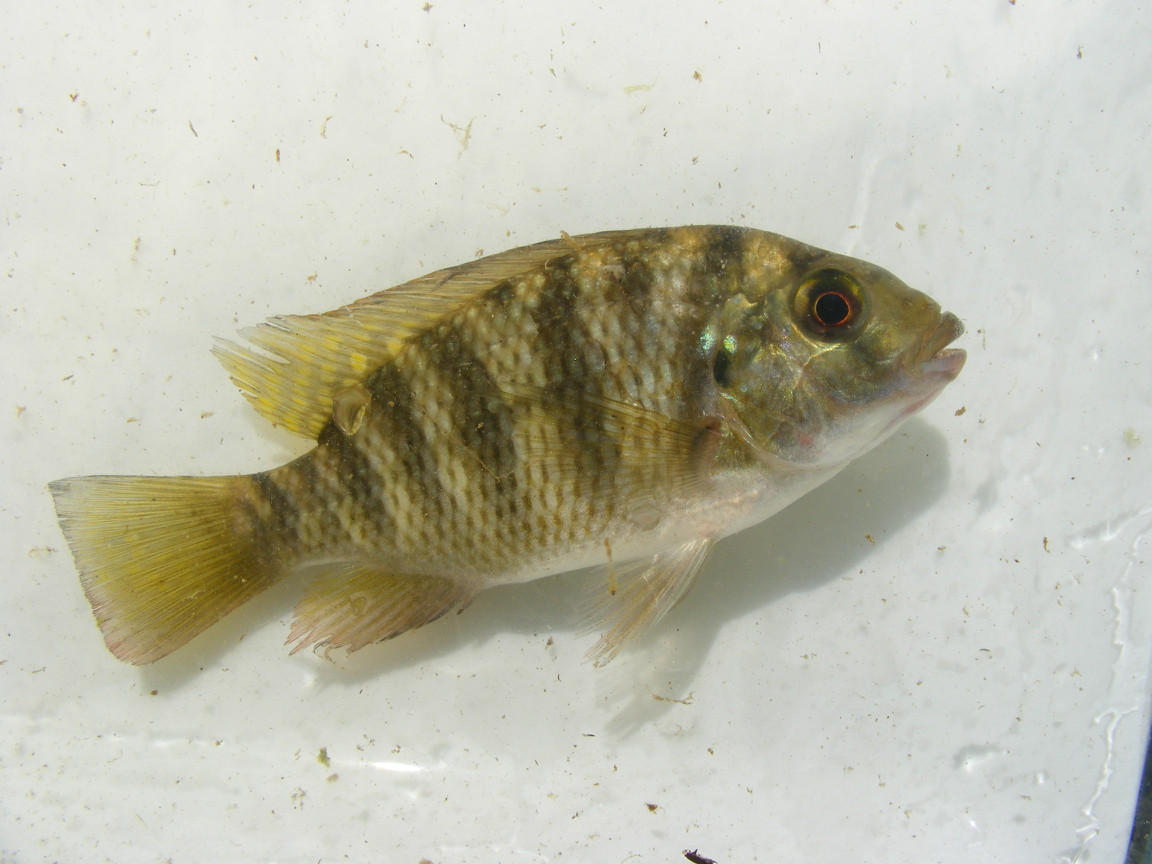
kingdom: Animalia
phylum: Chordata
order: Perciformes
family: Cichlidae
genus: Coptodon
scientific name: Coptodon rendalli
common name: Redbreast tilapia
